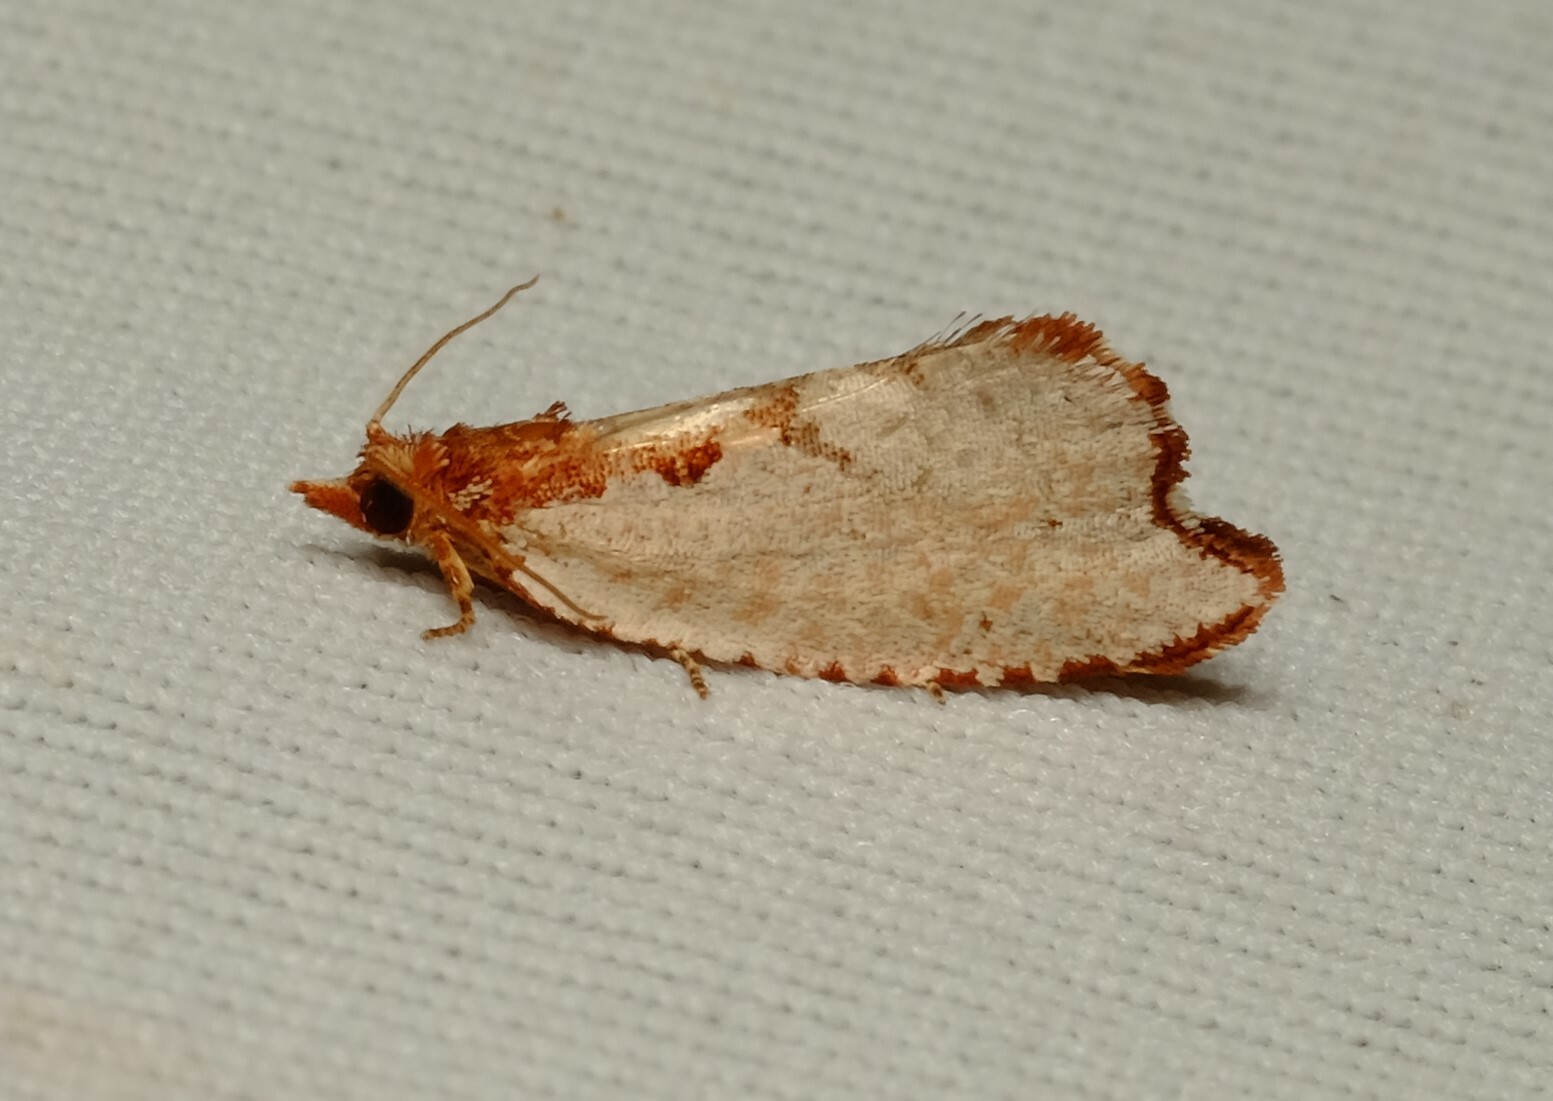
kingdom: Animalia
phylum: Arthropoda
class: Insecta
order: Lepidoptera
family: Tortricidae
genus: Glyphidoptera
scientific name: Glyphidoptera polymita
